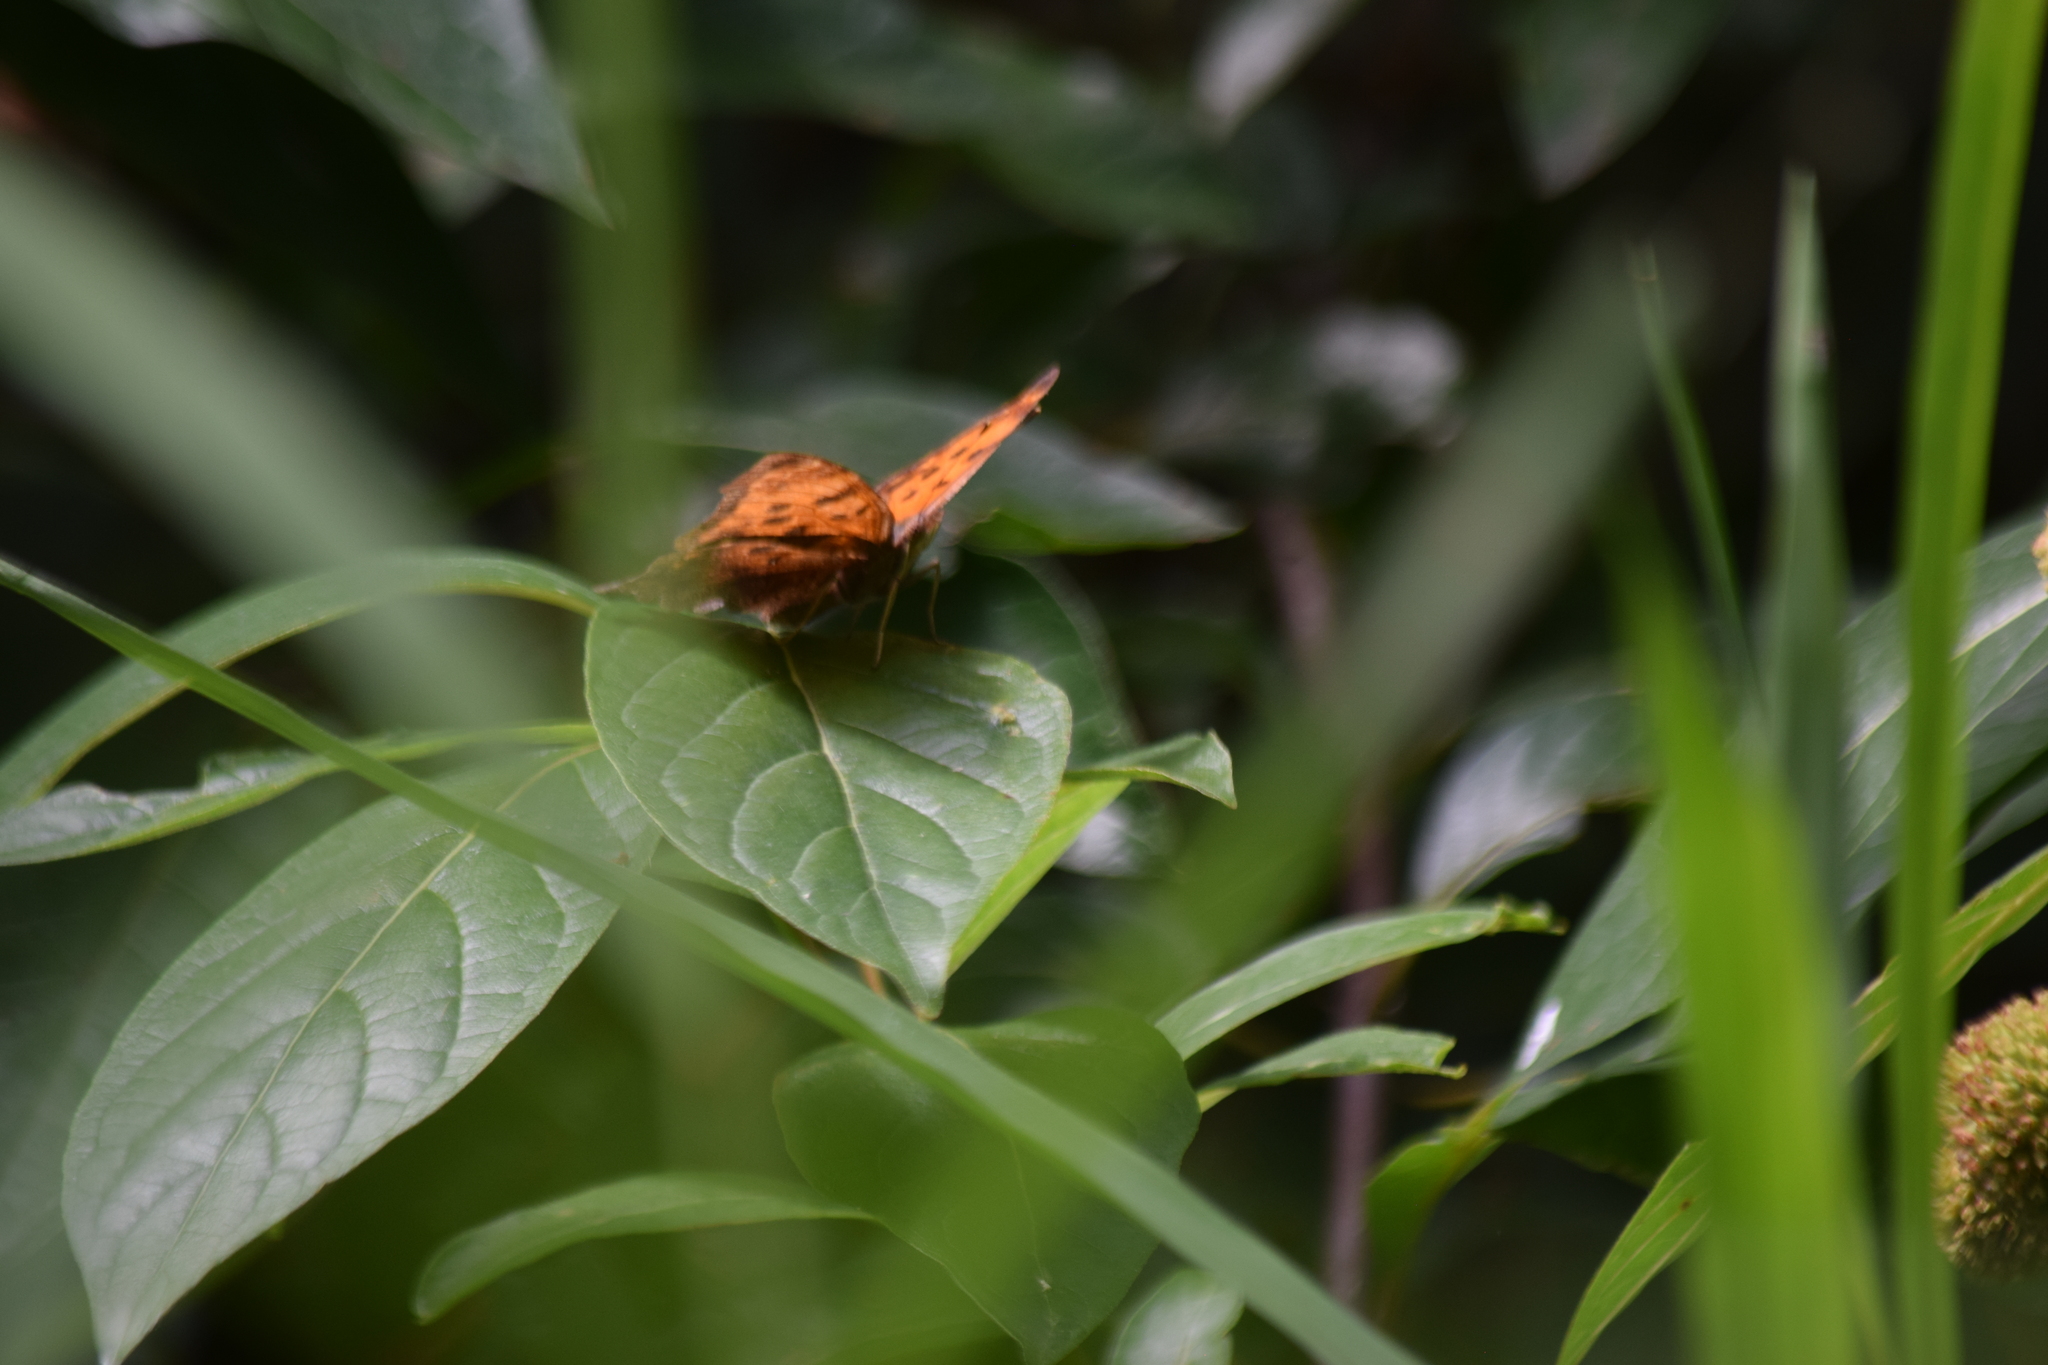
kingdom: Animalia
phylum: Arthropoda
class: Insecta
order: Lepidoptera
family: Nymphalidae
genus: Polygonia
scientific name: Polygonia comma
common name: Eastern comma
